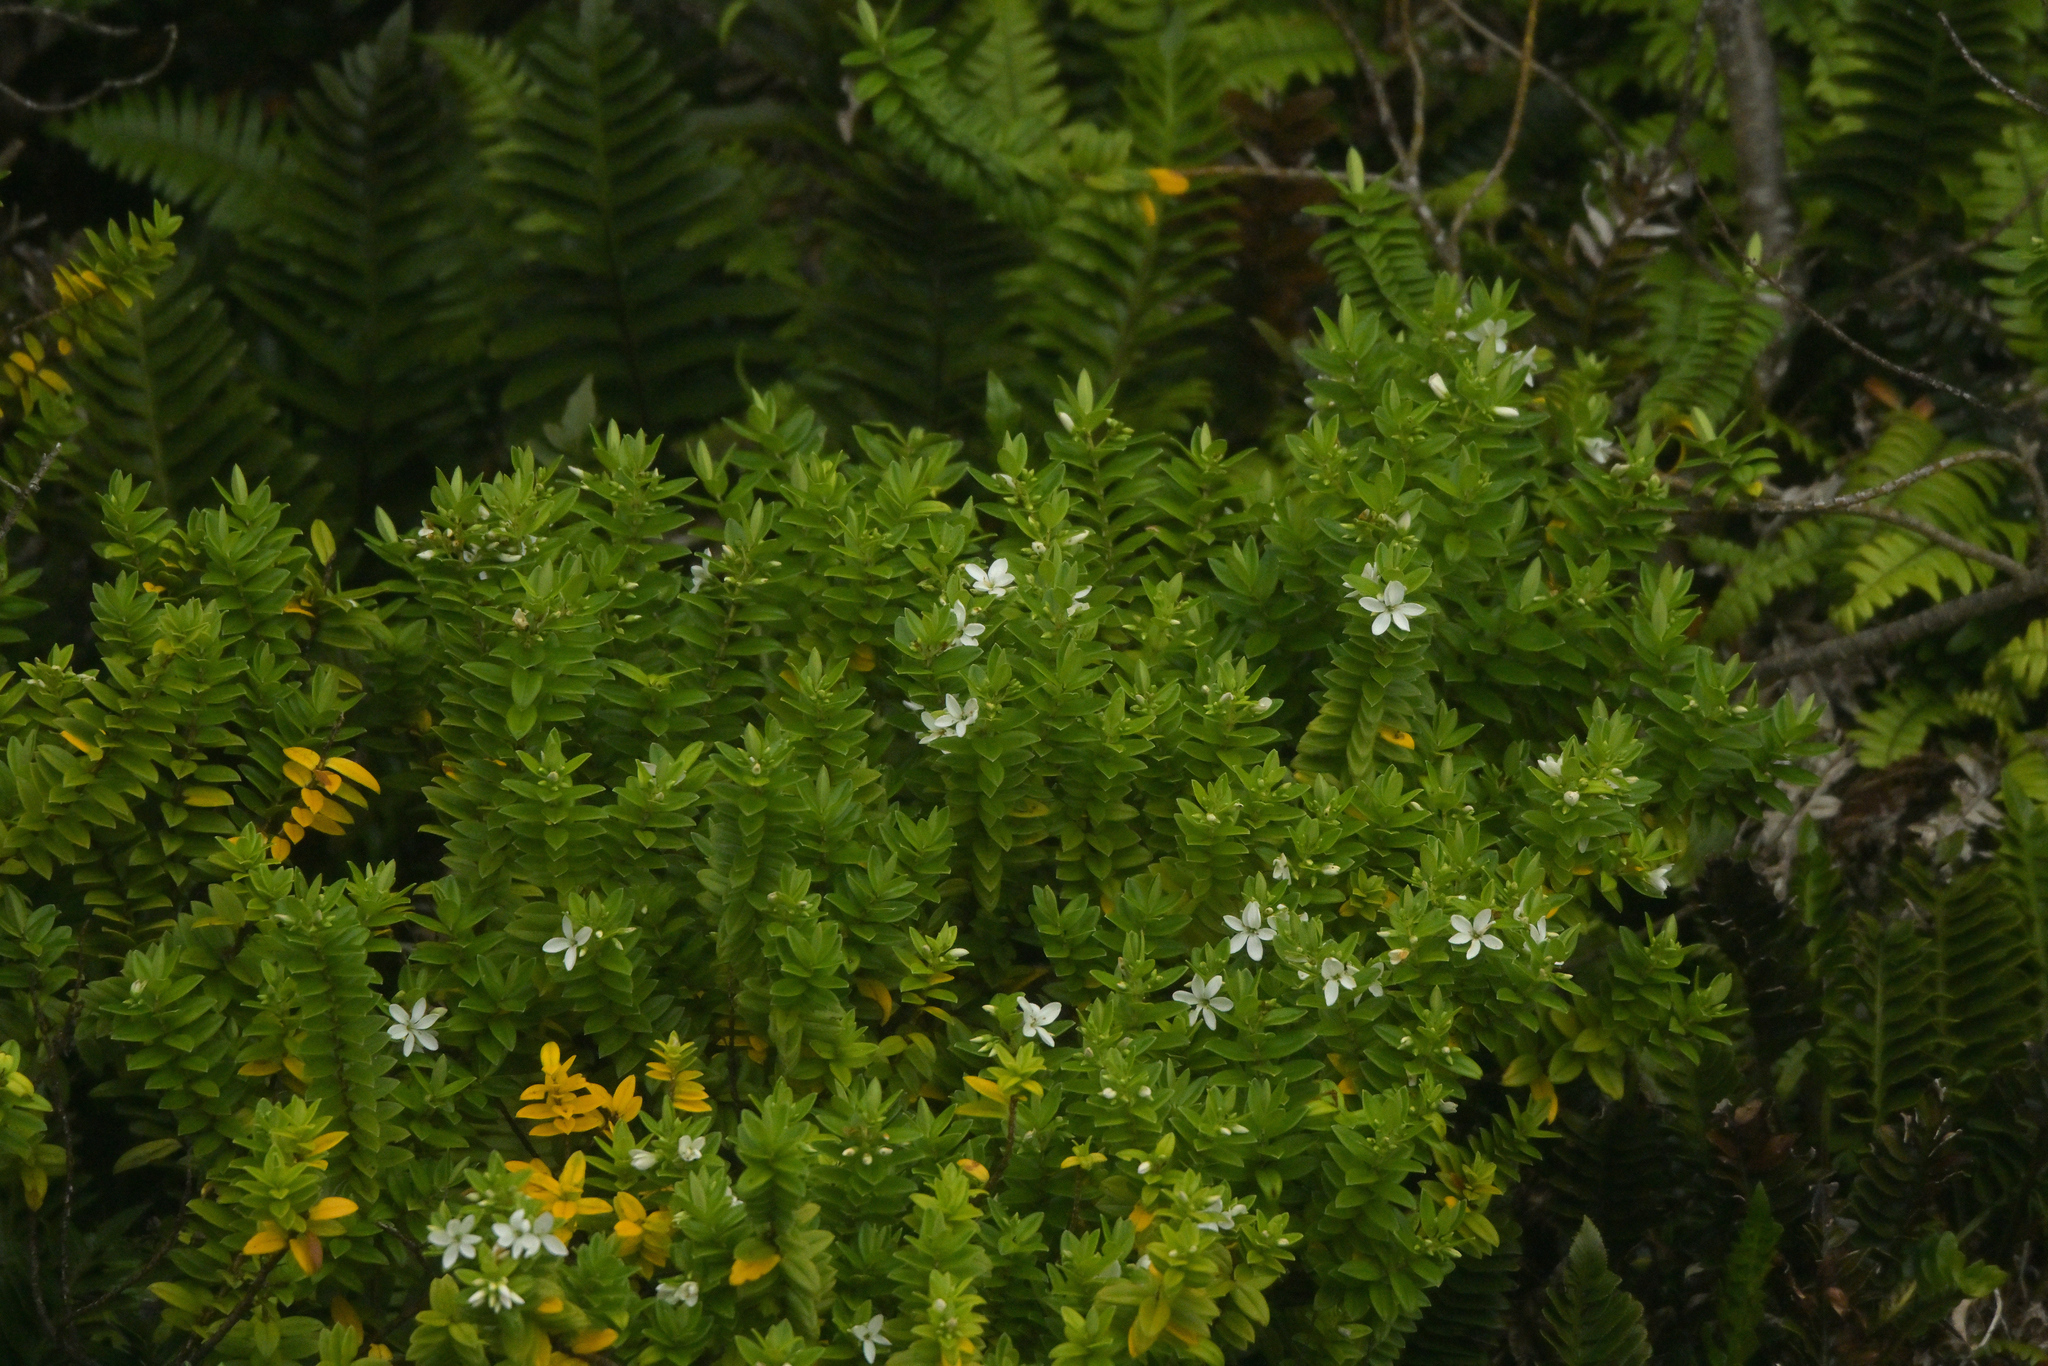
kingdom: Plantae
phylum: Tracheophyta
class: Magnoliopsida
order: Lamiales
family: Plantaginaceae
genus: Veronica
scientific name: Veronica elliptica
